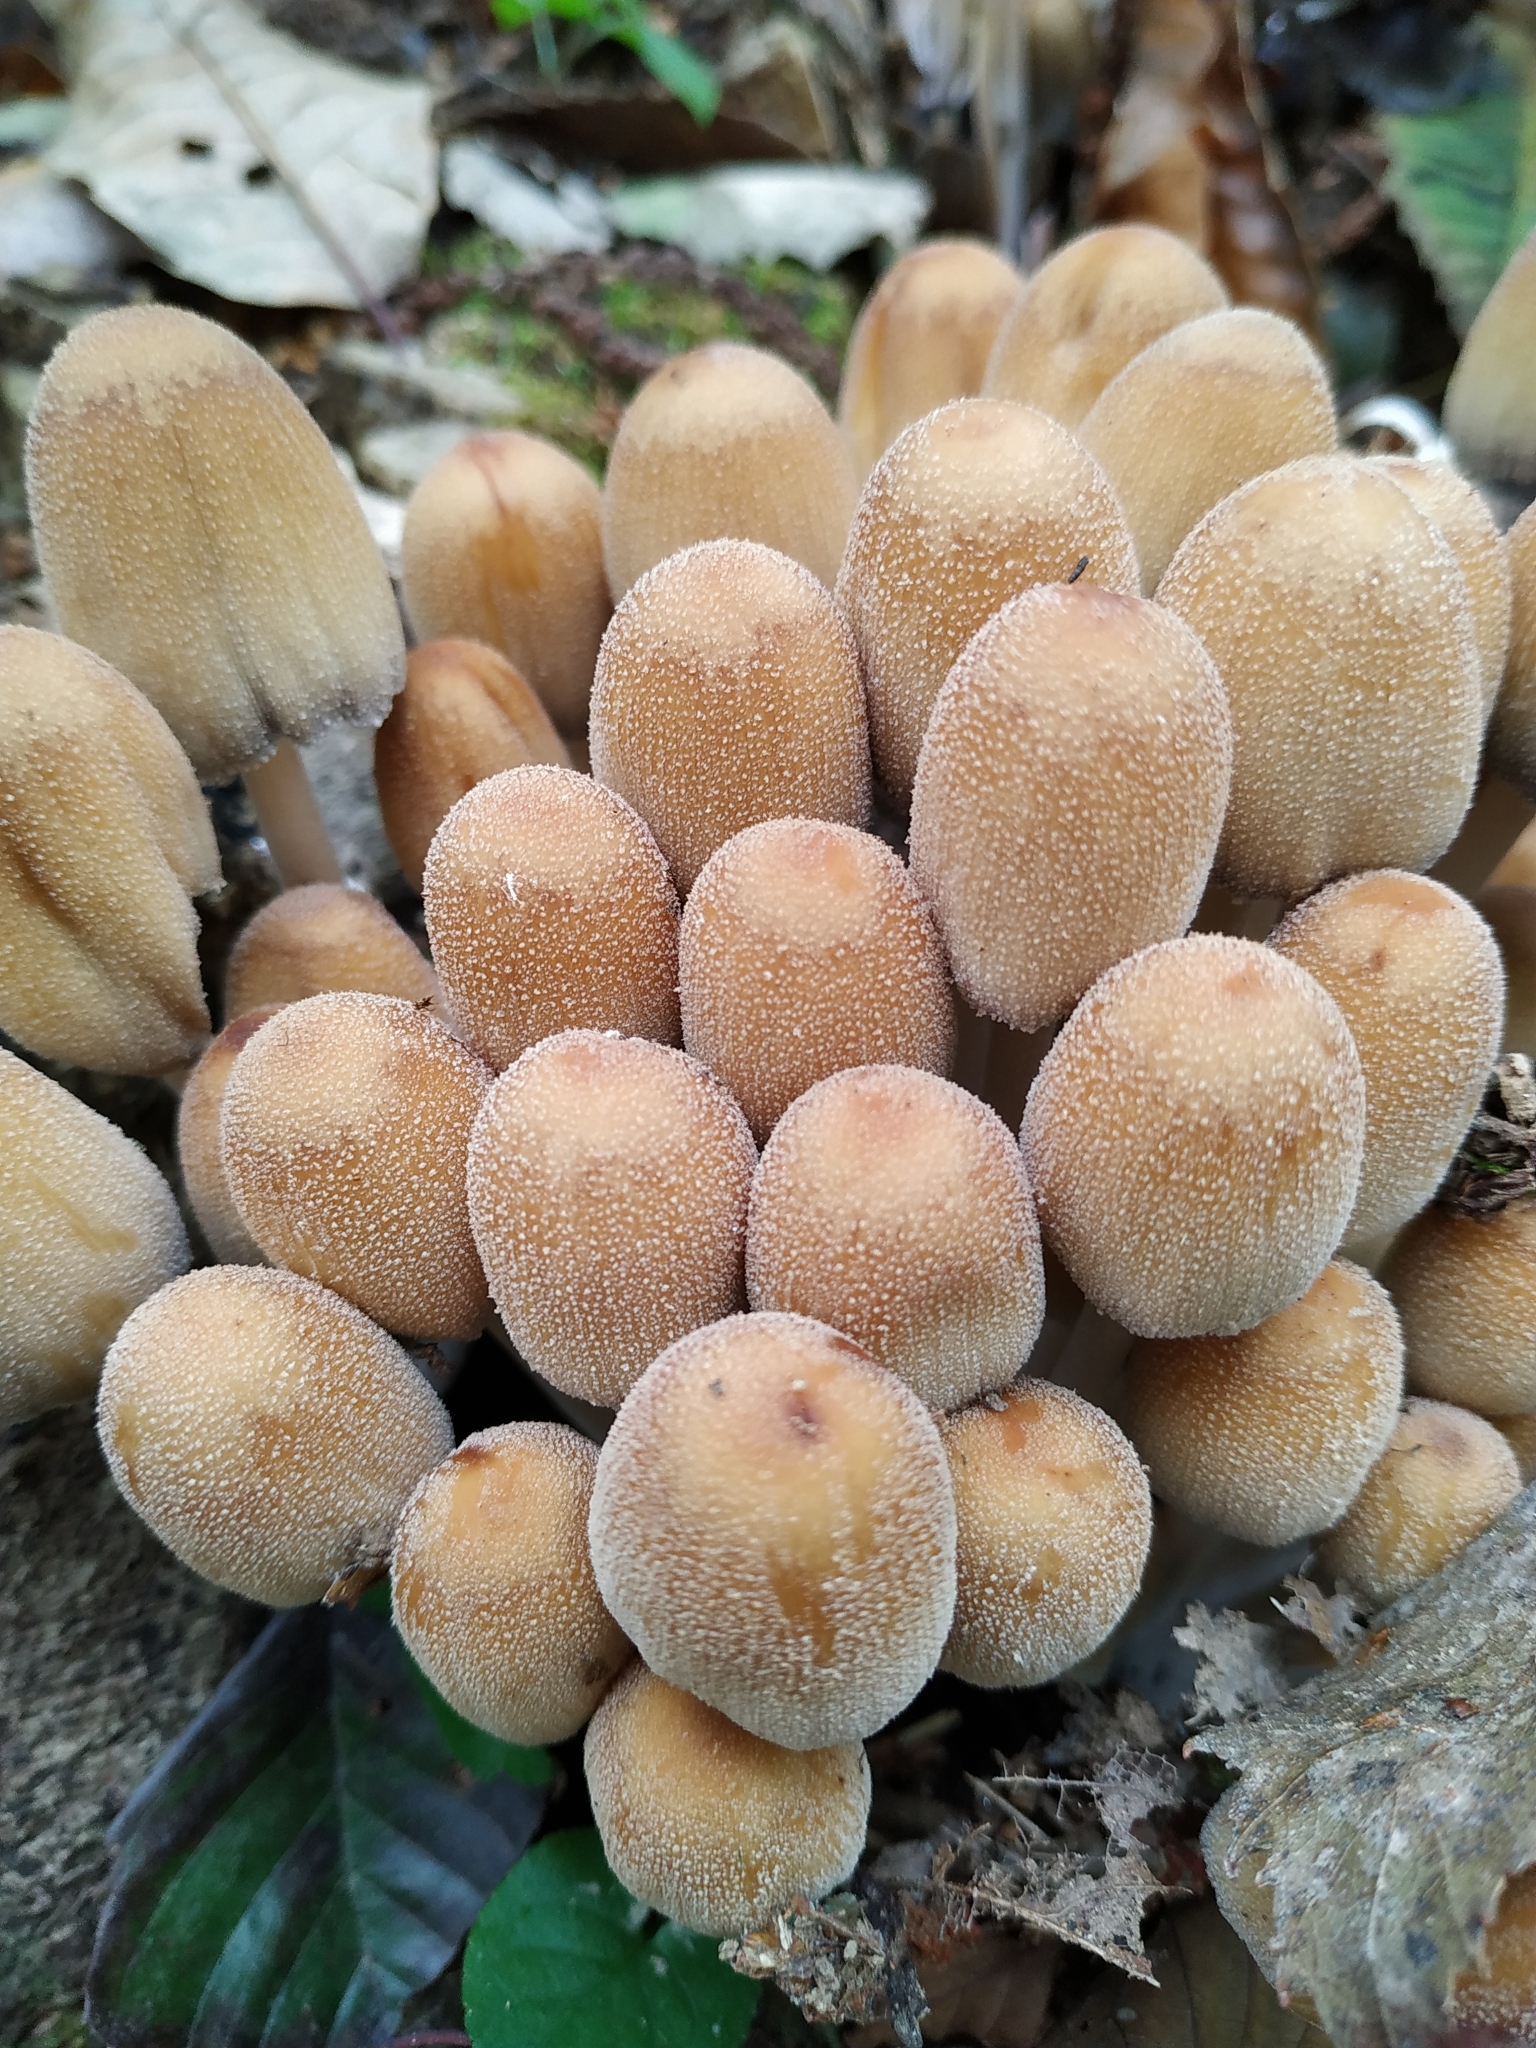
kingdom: Fungi
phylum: Basidiomycota
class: Agaricomycetes
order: Agaricales
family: Psathyrellaceae
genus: Coprinellus
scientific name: Coprinellus micaceus
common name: Glistening ink-cap
